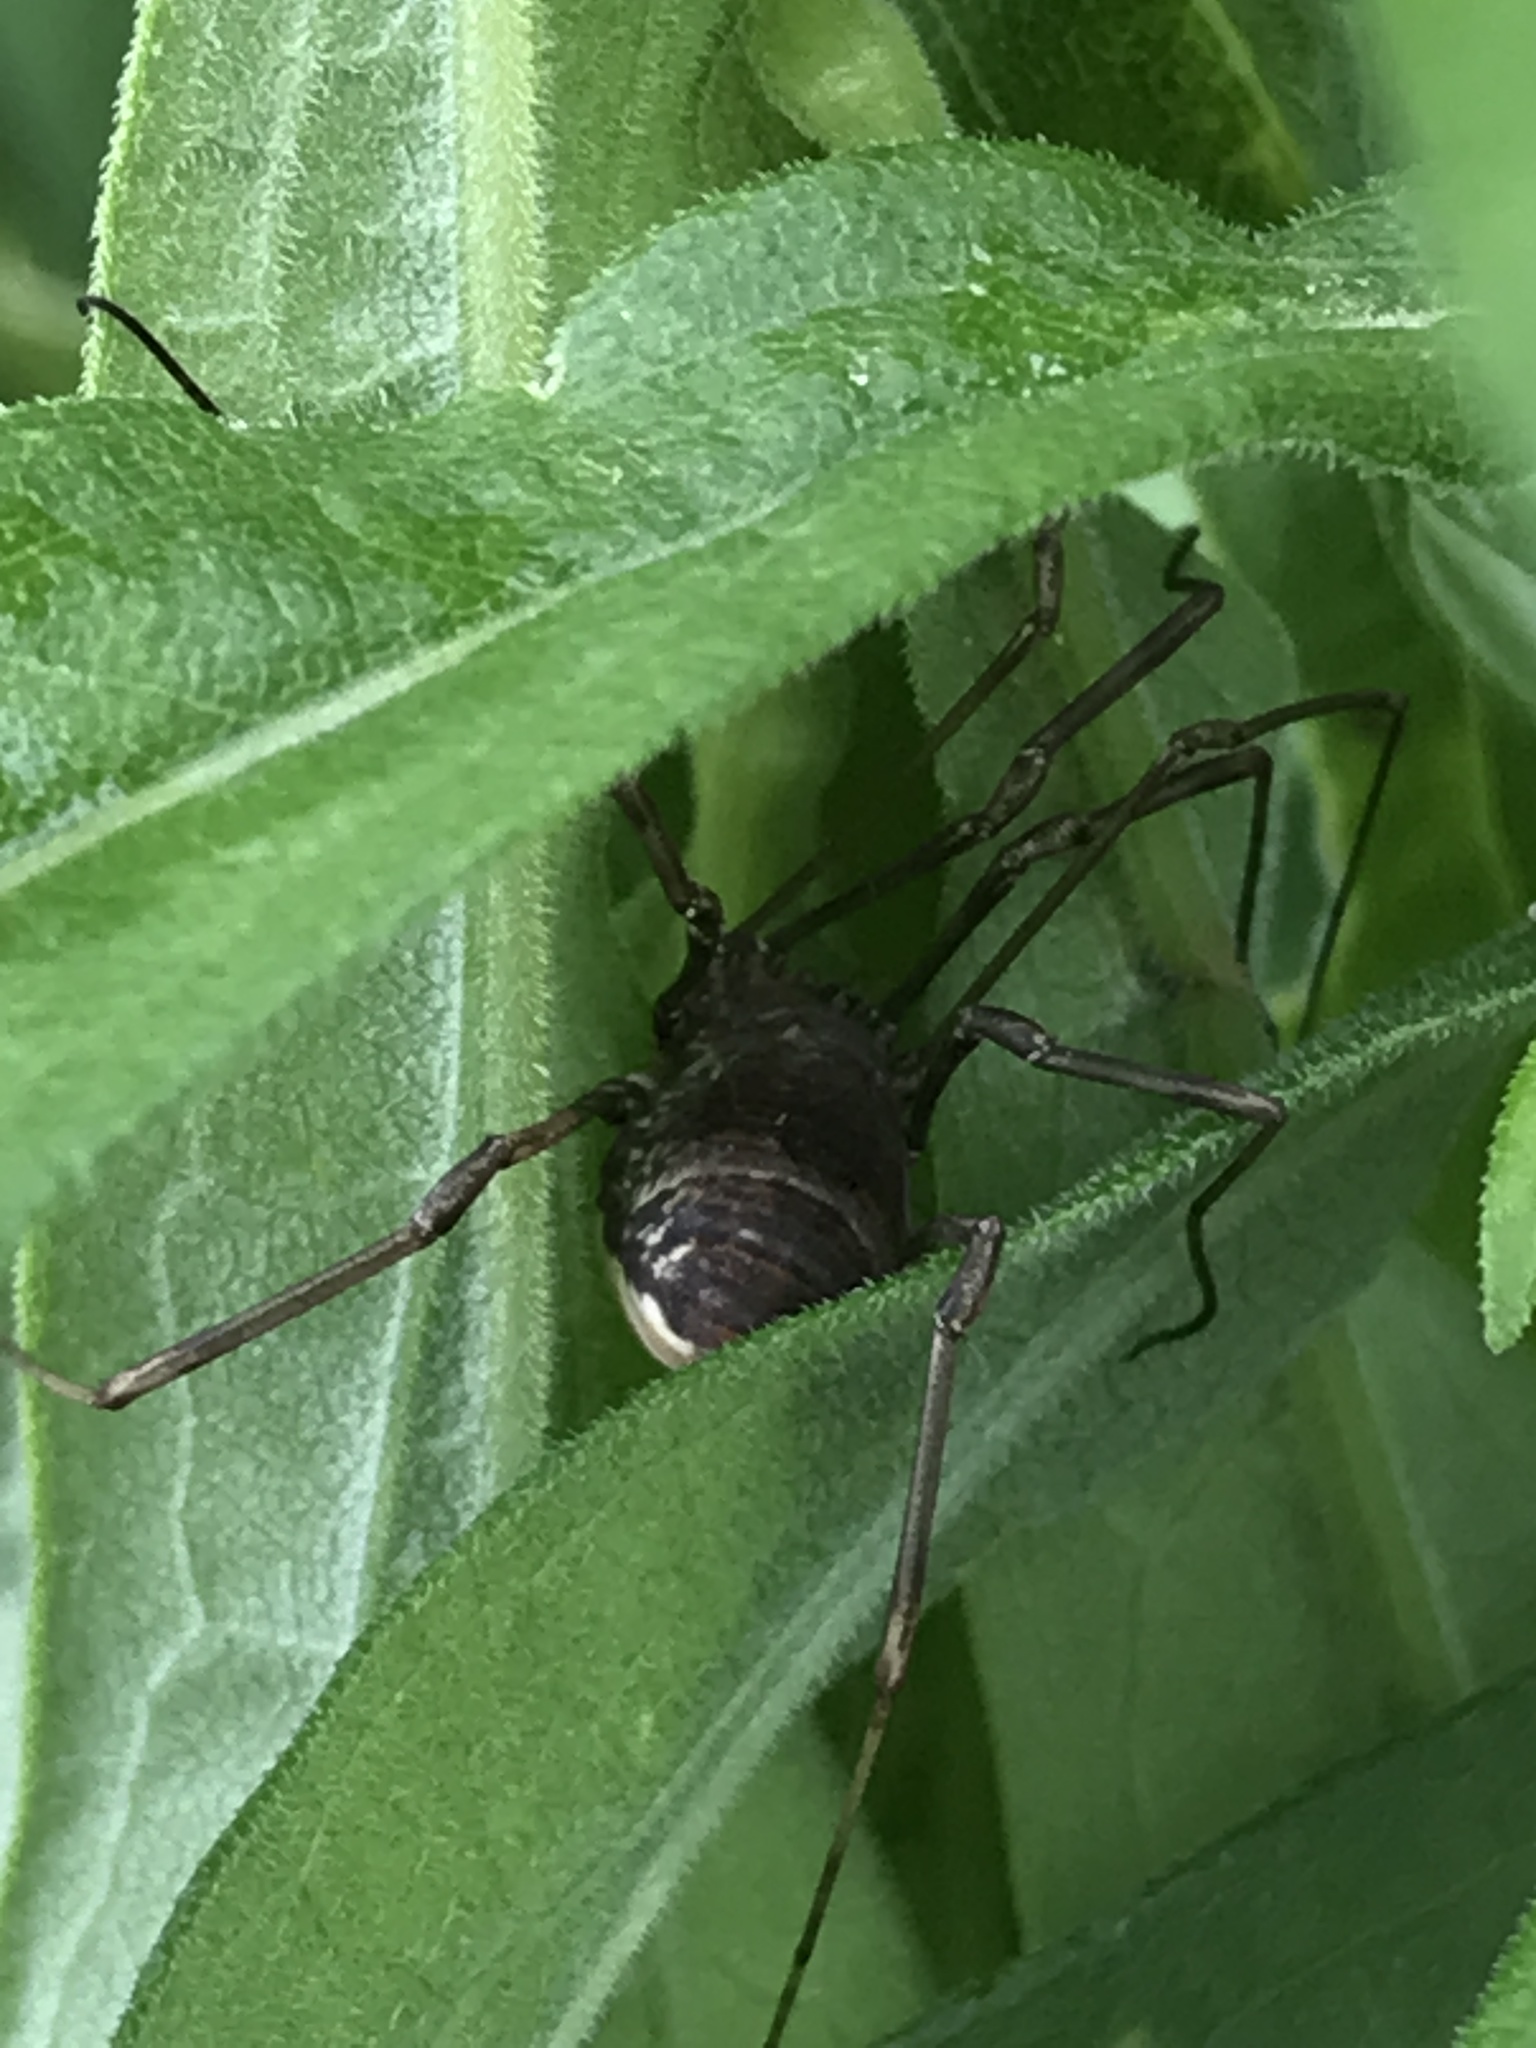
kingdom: Animalia
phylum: Arthropoda
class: Arachnida
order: Opiliones
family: Sclerosomatidae
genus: Leiobunum
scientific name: Leiobunum verrucosum
